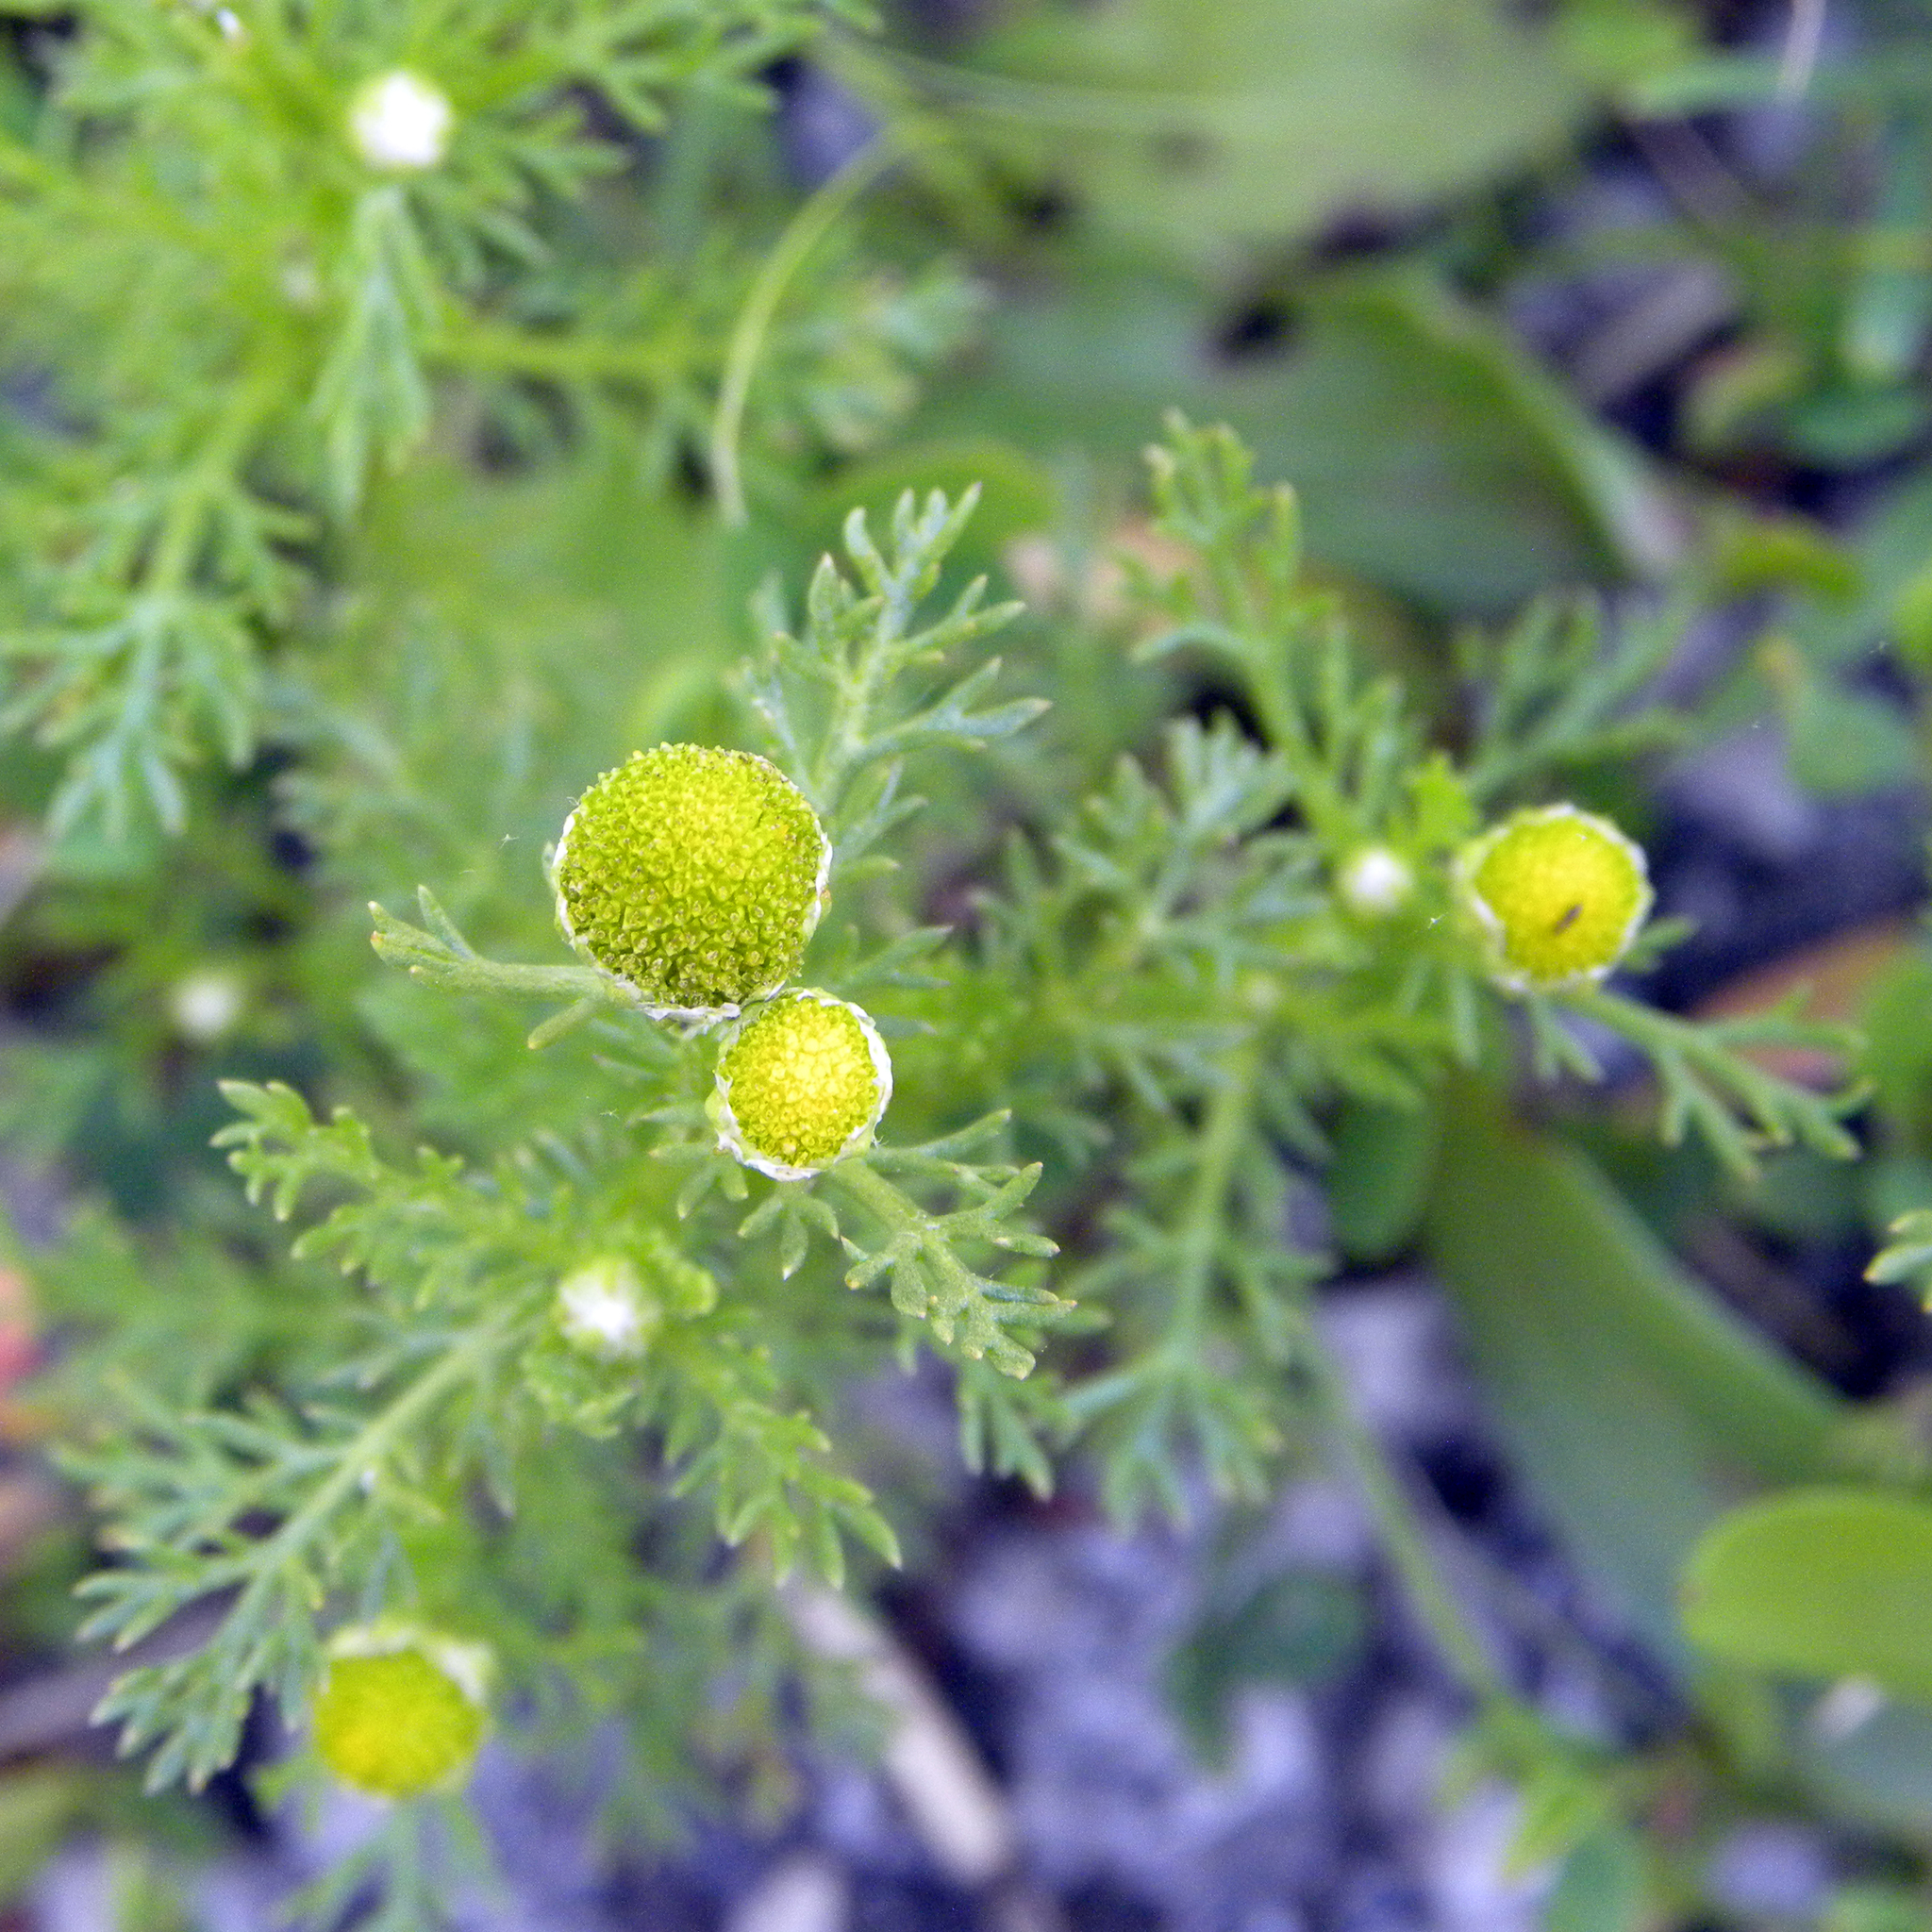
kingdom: Plantae
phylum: Tracheophyta
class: Magnoliopsida
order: Asterales
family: Asteraceae
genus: Matricaria
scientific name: Matricaria discoidea
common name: Disc mayweed
